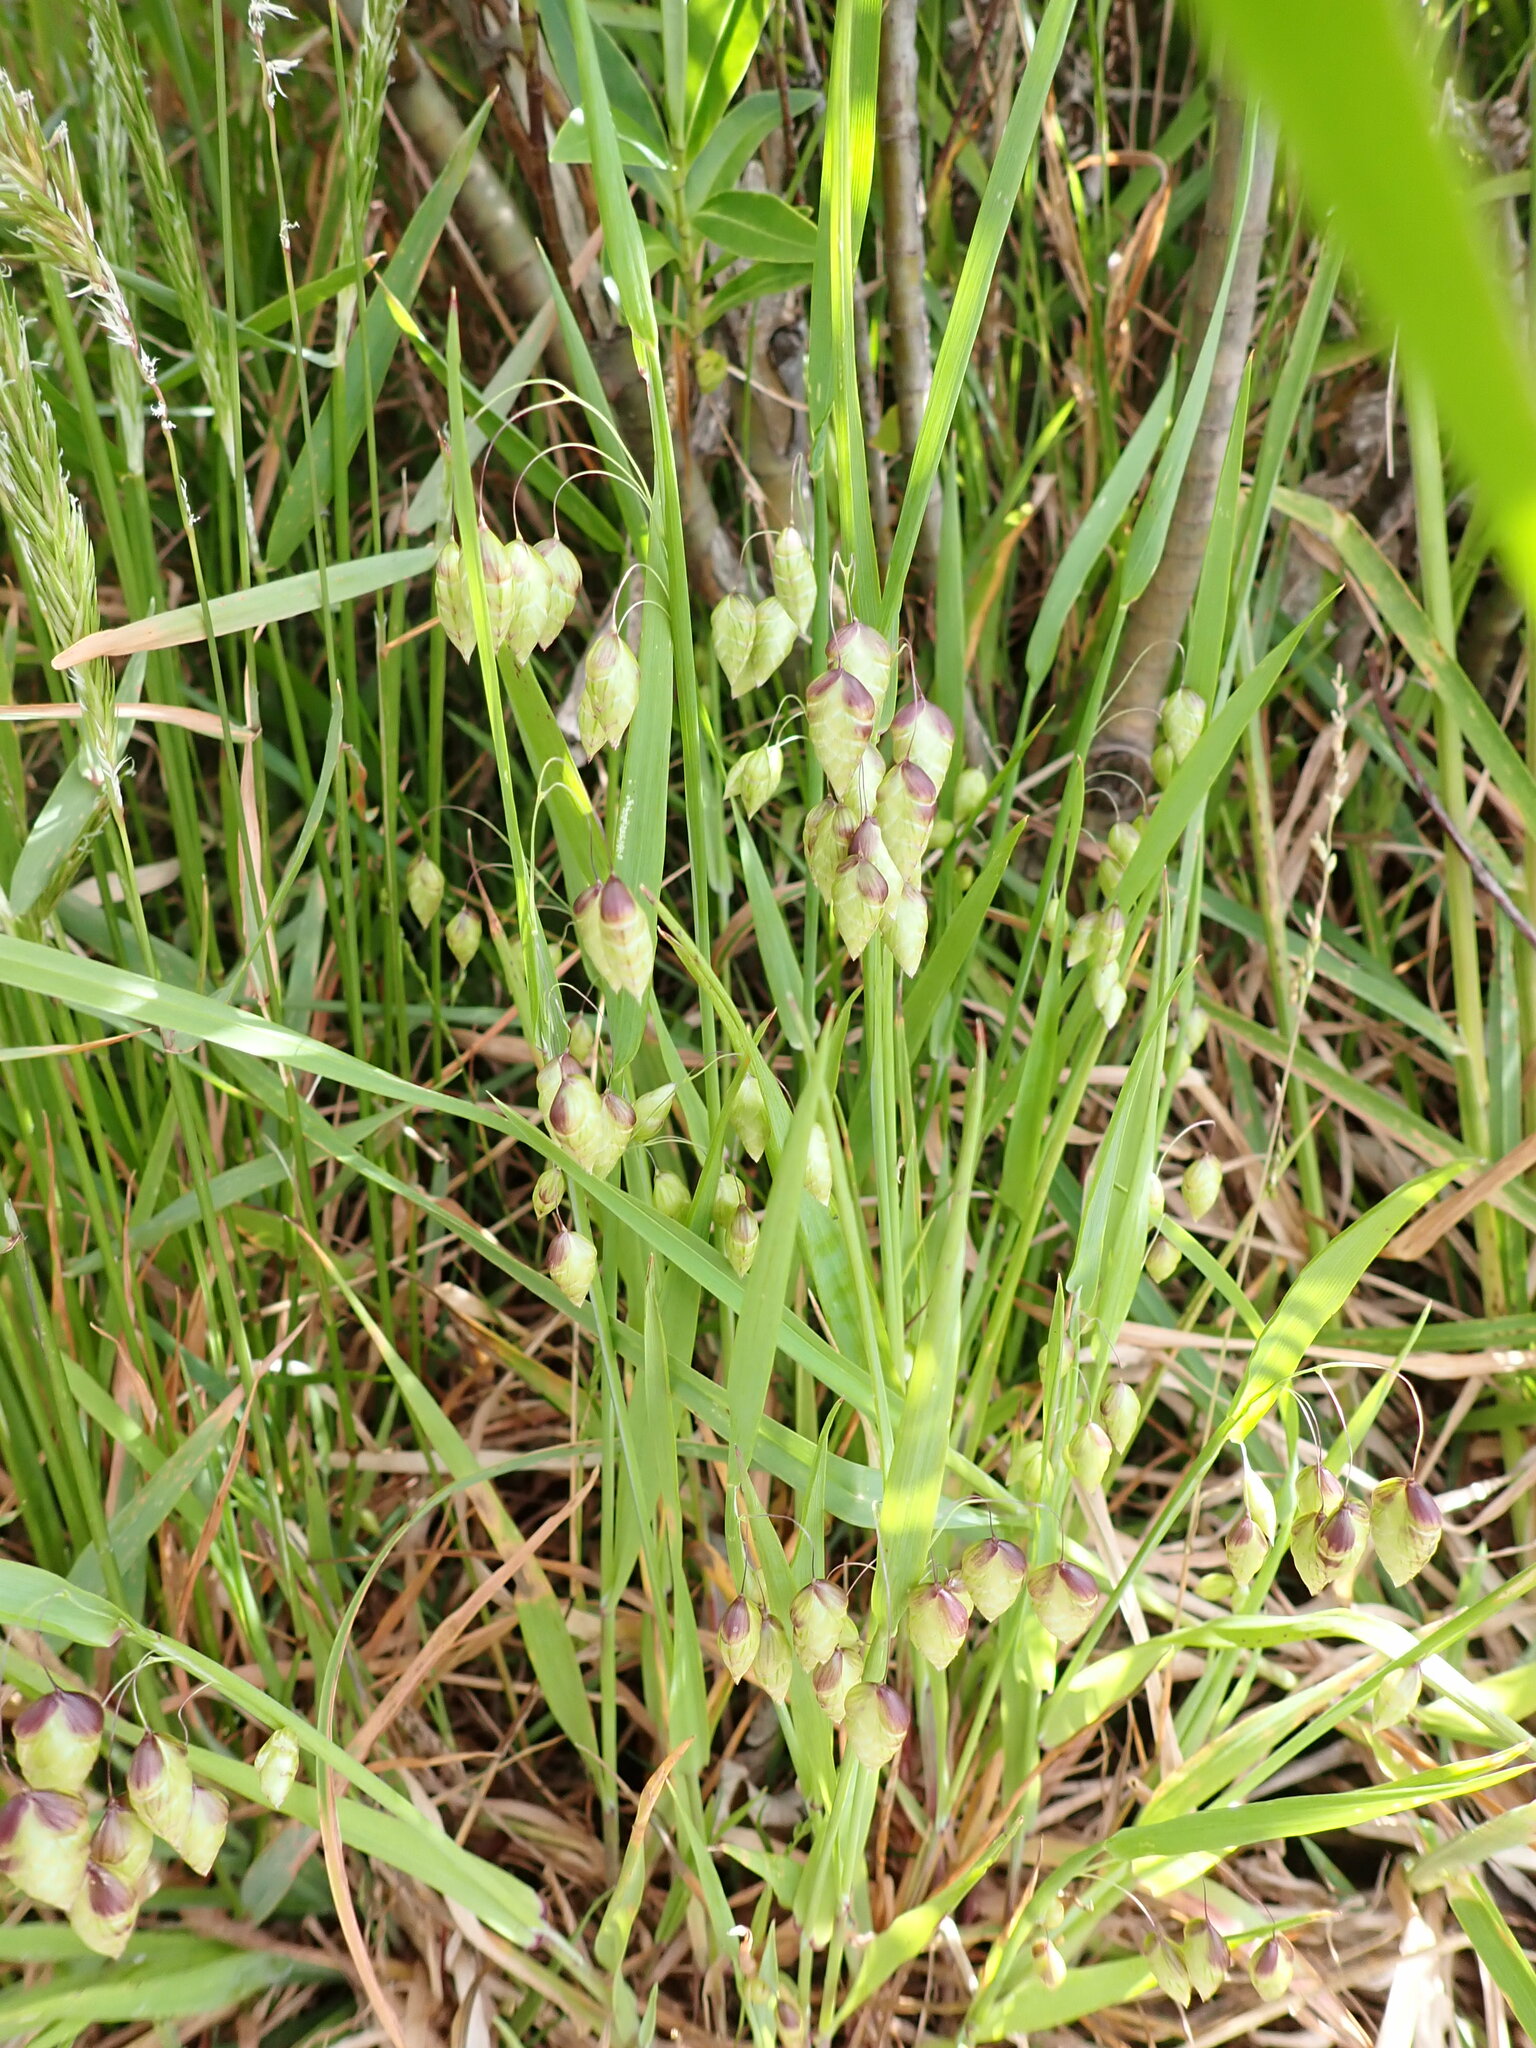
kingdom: Plantae
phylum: Tracheophyta
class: Liliopsida
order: Poales
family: Poaceae
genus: Briza
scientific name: Briza maxima
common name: Big quakinggrass
